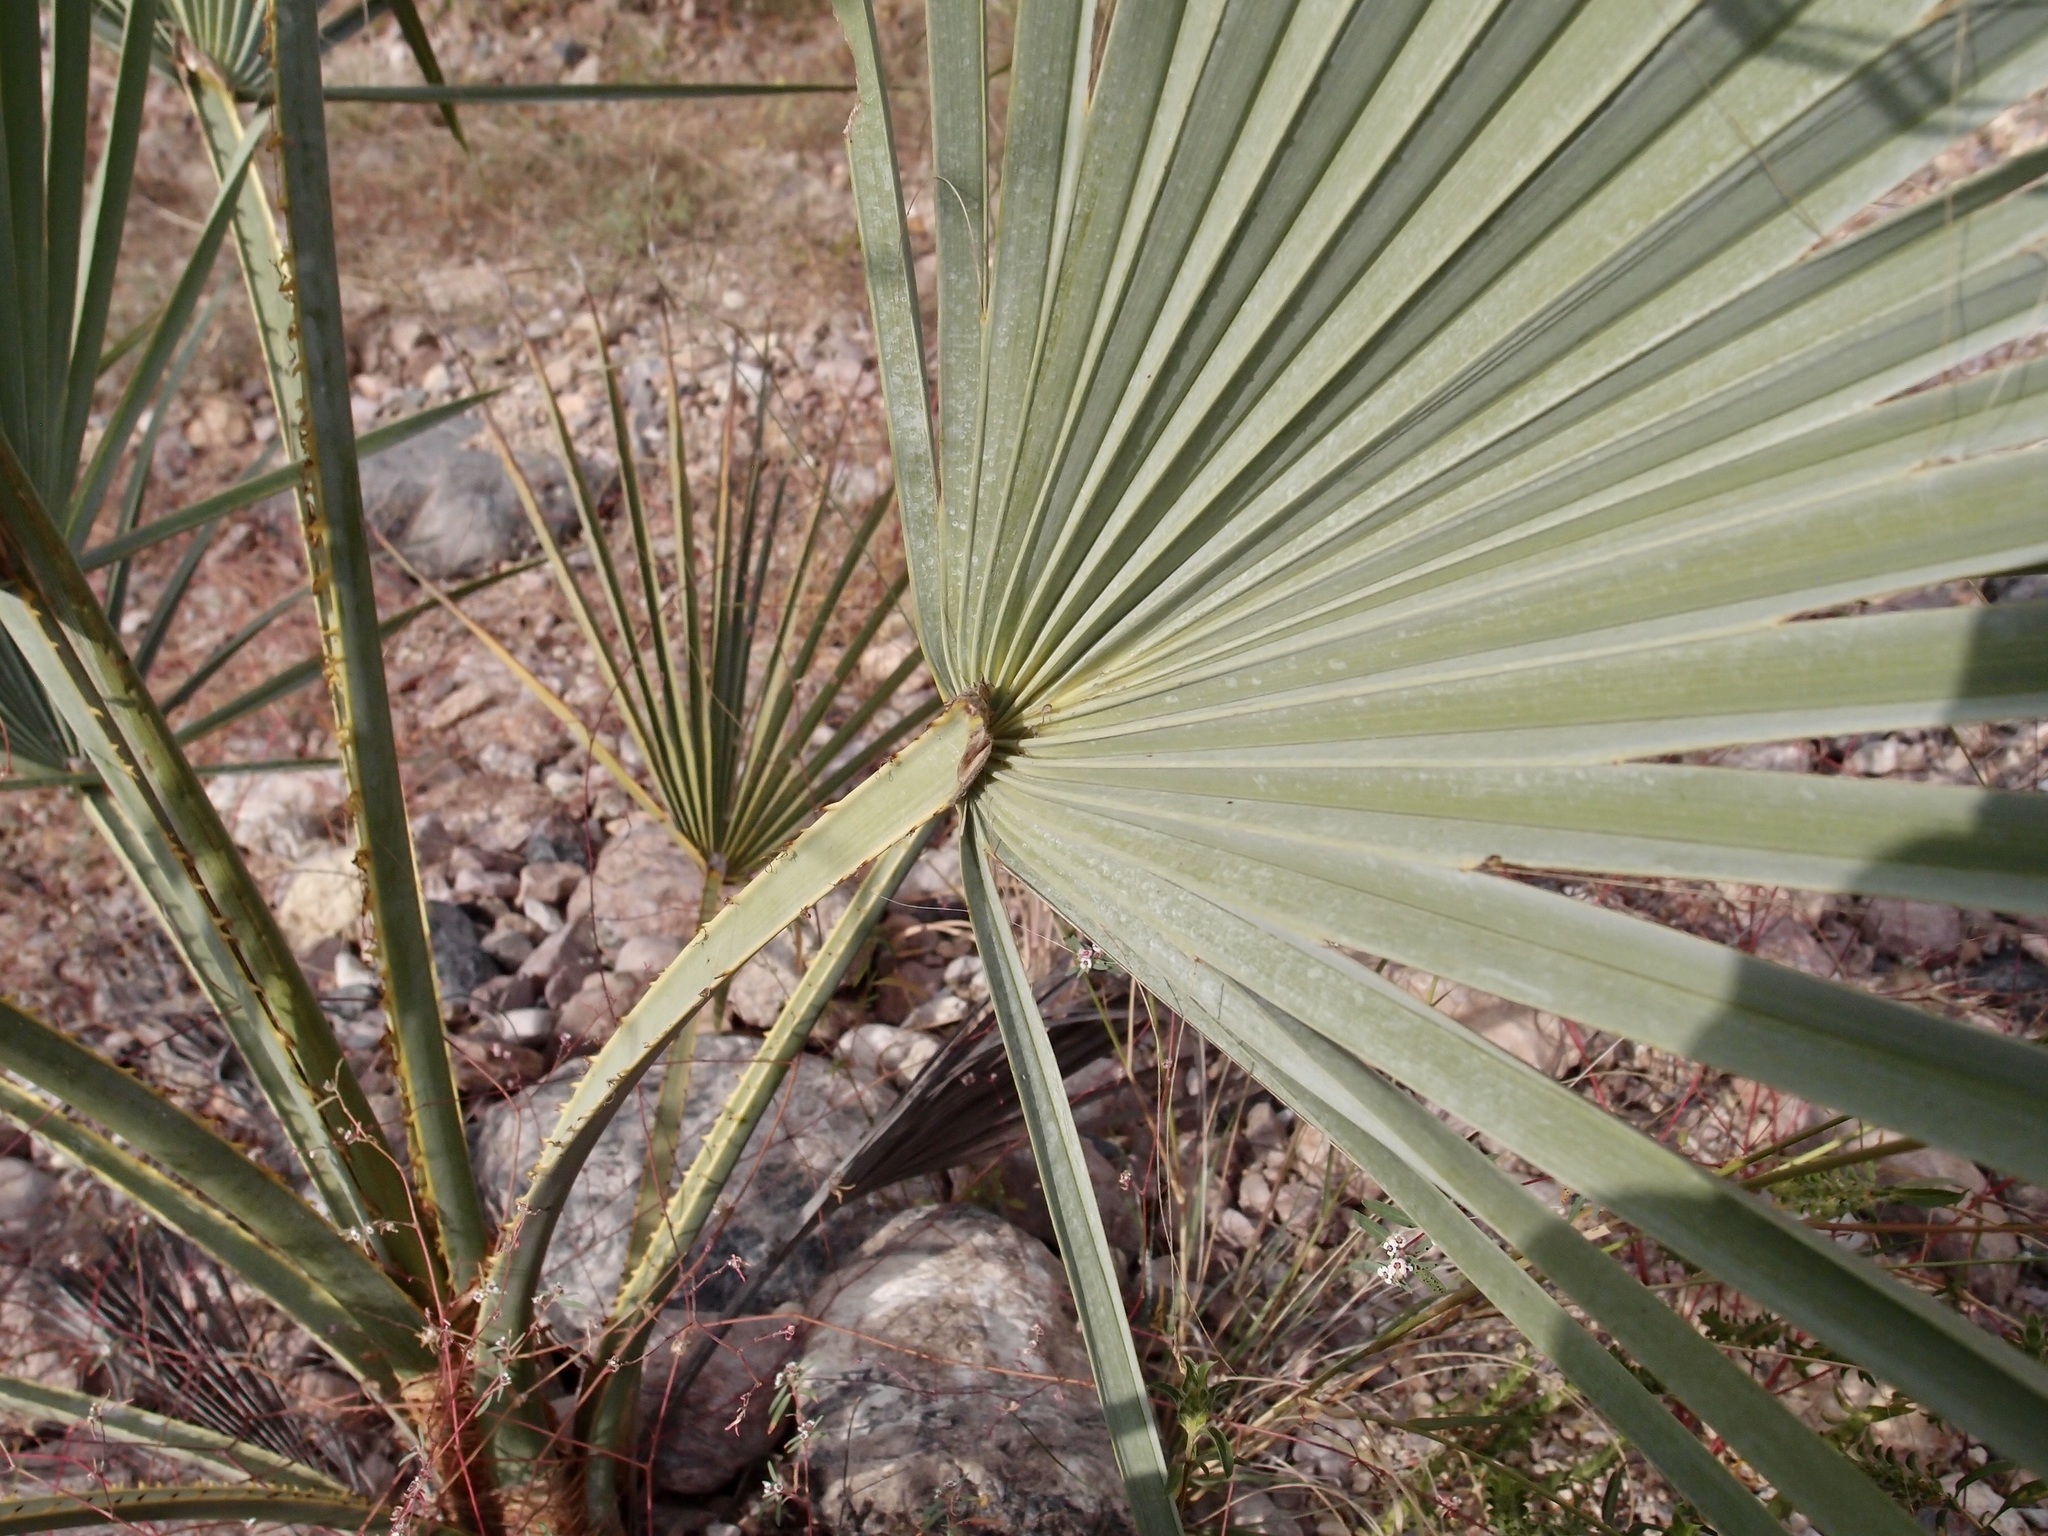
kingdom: Plantae
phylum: Tracheophyta
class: Liliopsida
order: Arecales
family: Arecaceae
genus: Brahea
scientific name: Brahea brandegeei
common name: San jose hesper palm
